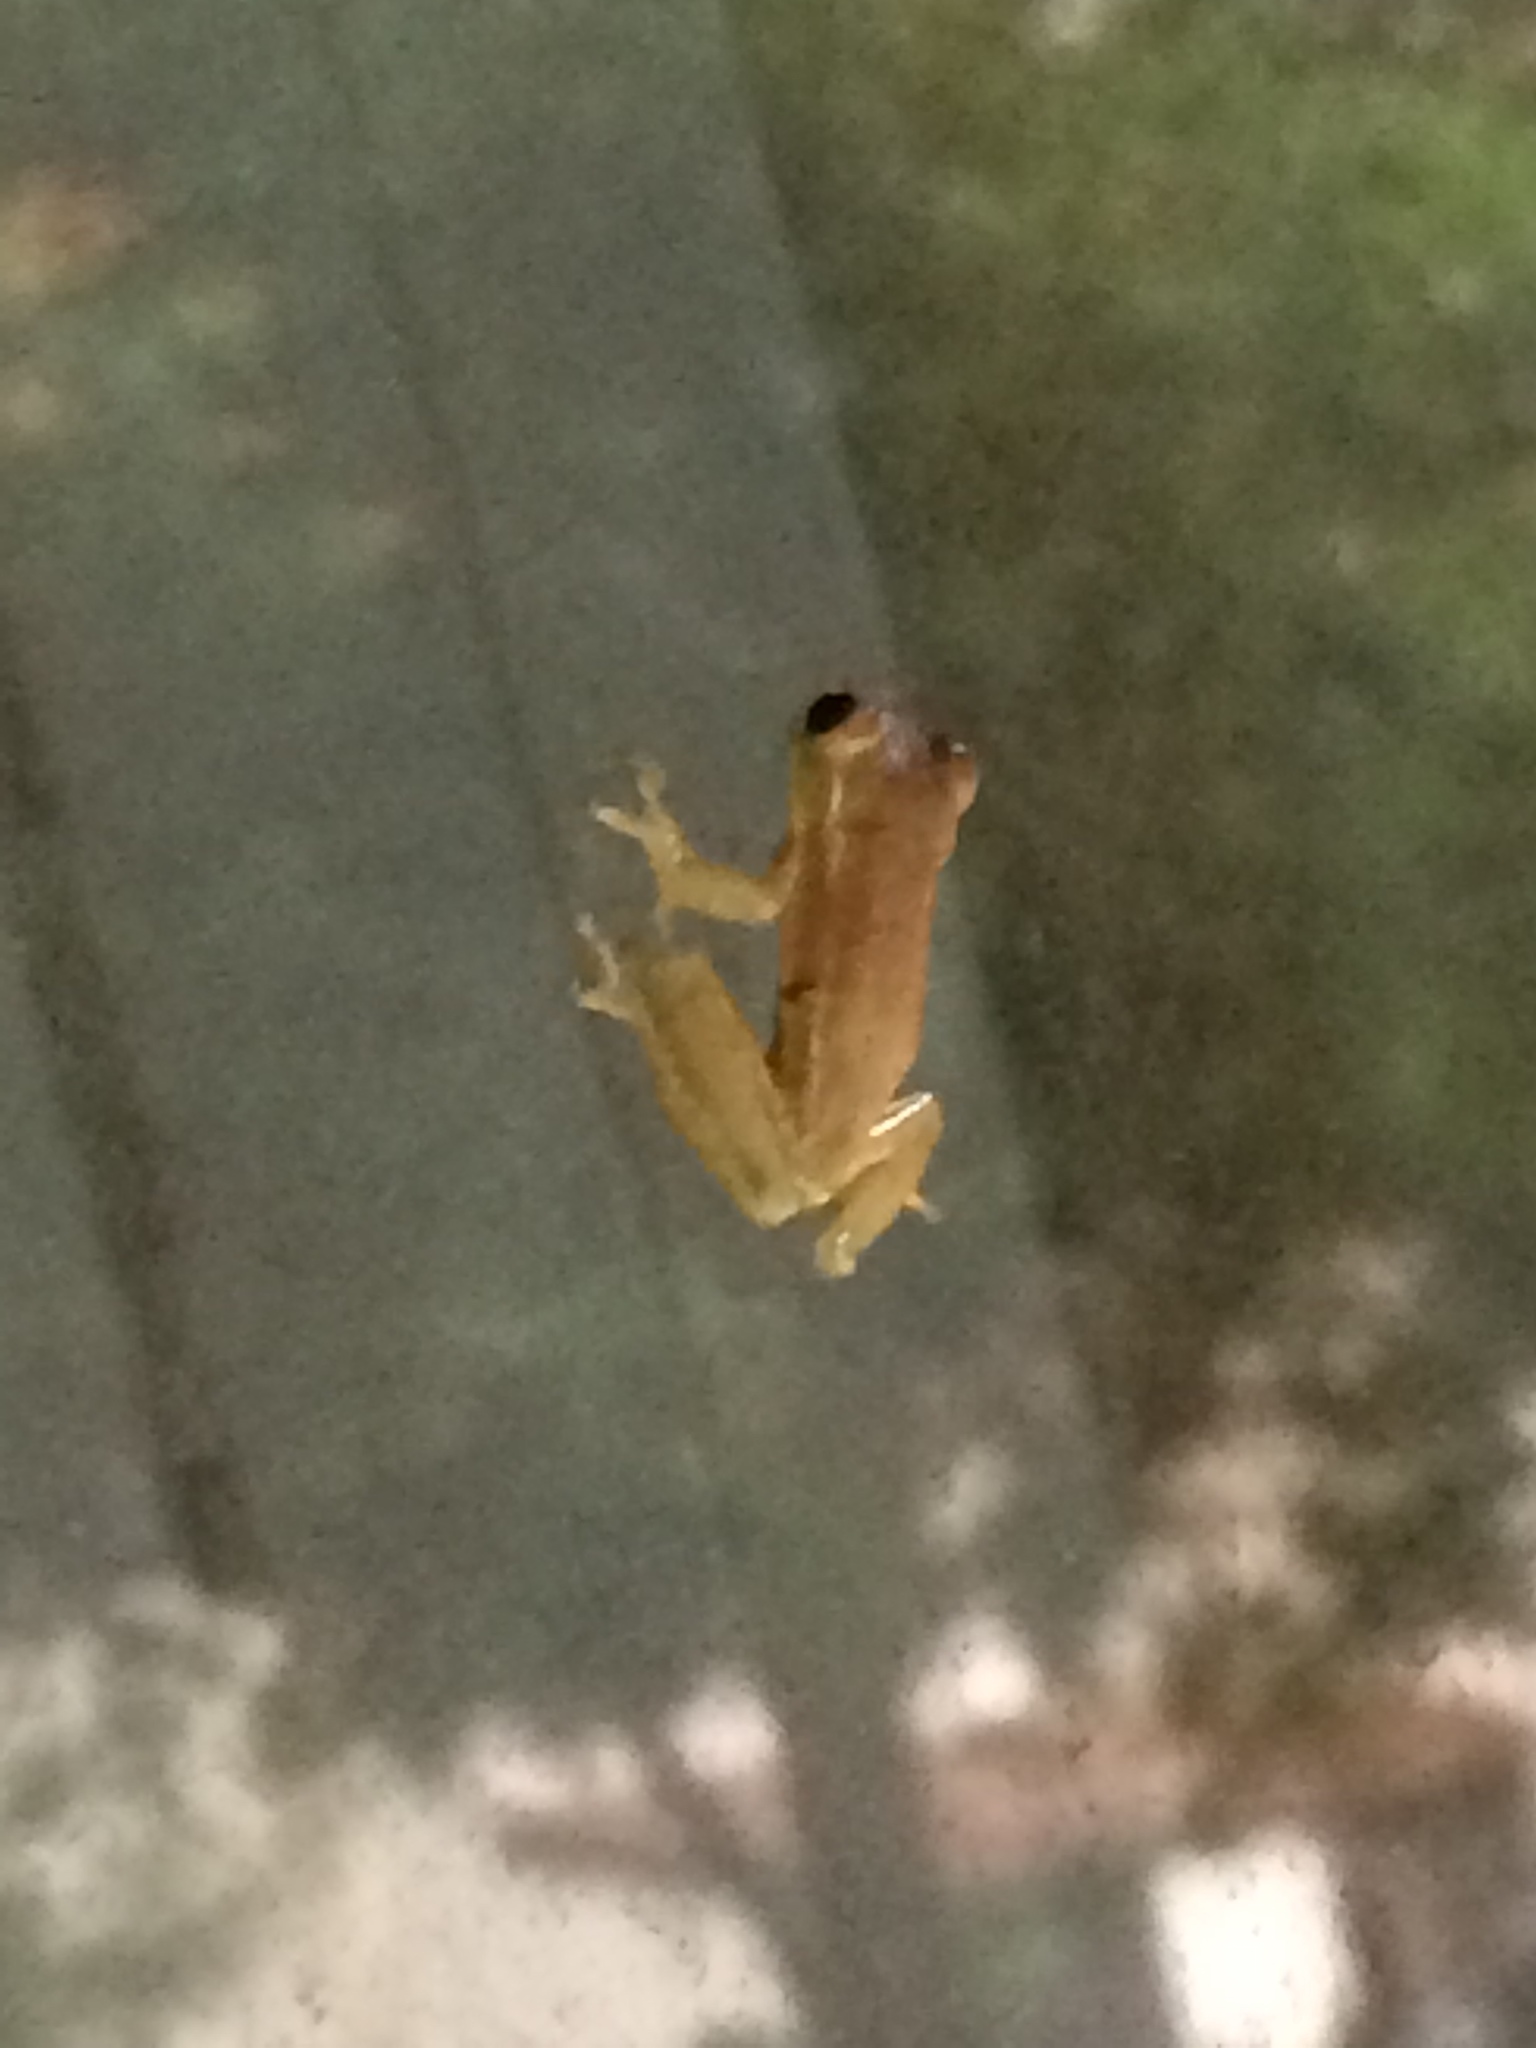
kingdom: Animalia
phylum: Chordata
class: Amphibia
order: Anura
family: Hylidae
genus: Osteopilus
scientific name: Osteopilus septentrionalis
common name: Cuban treefrog
